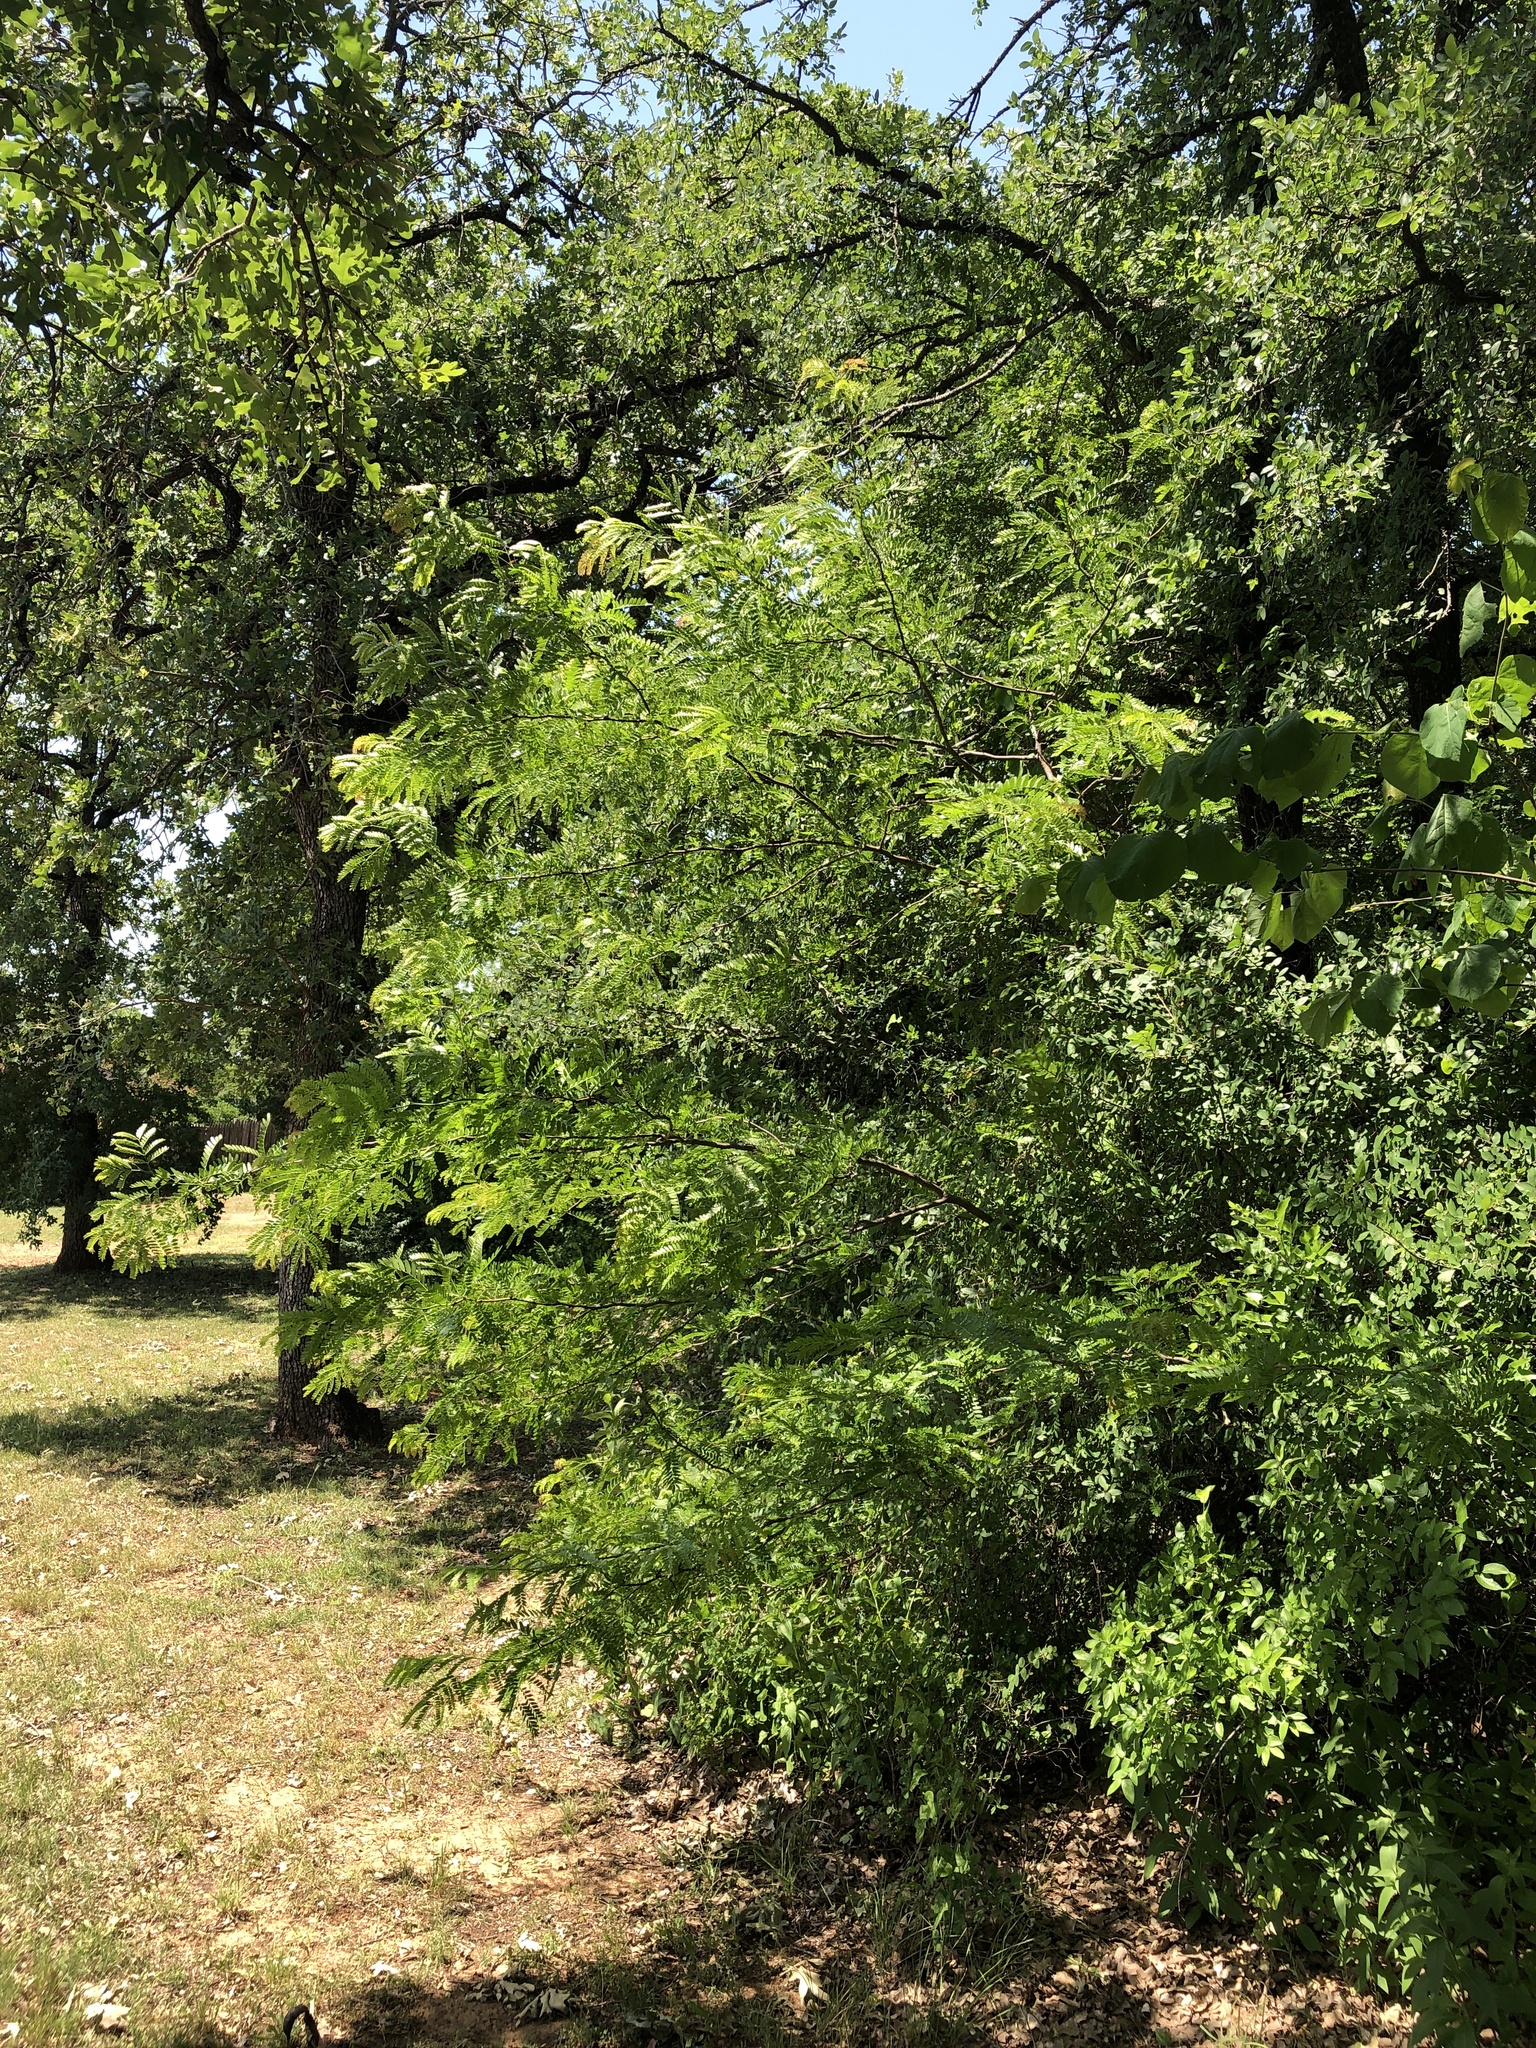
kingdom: Plantae
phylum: Tracheophyta
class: Magnoliopsida
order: Fabales
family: Fabaceae
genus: Gleditsia
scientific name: Gleditsia triacanthos
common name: Common honeylocust
